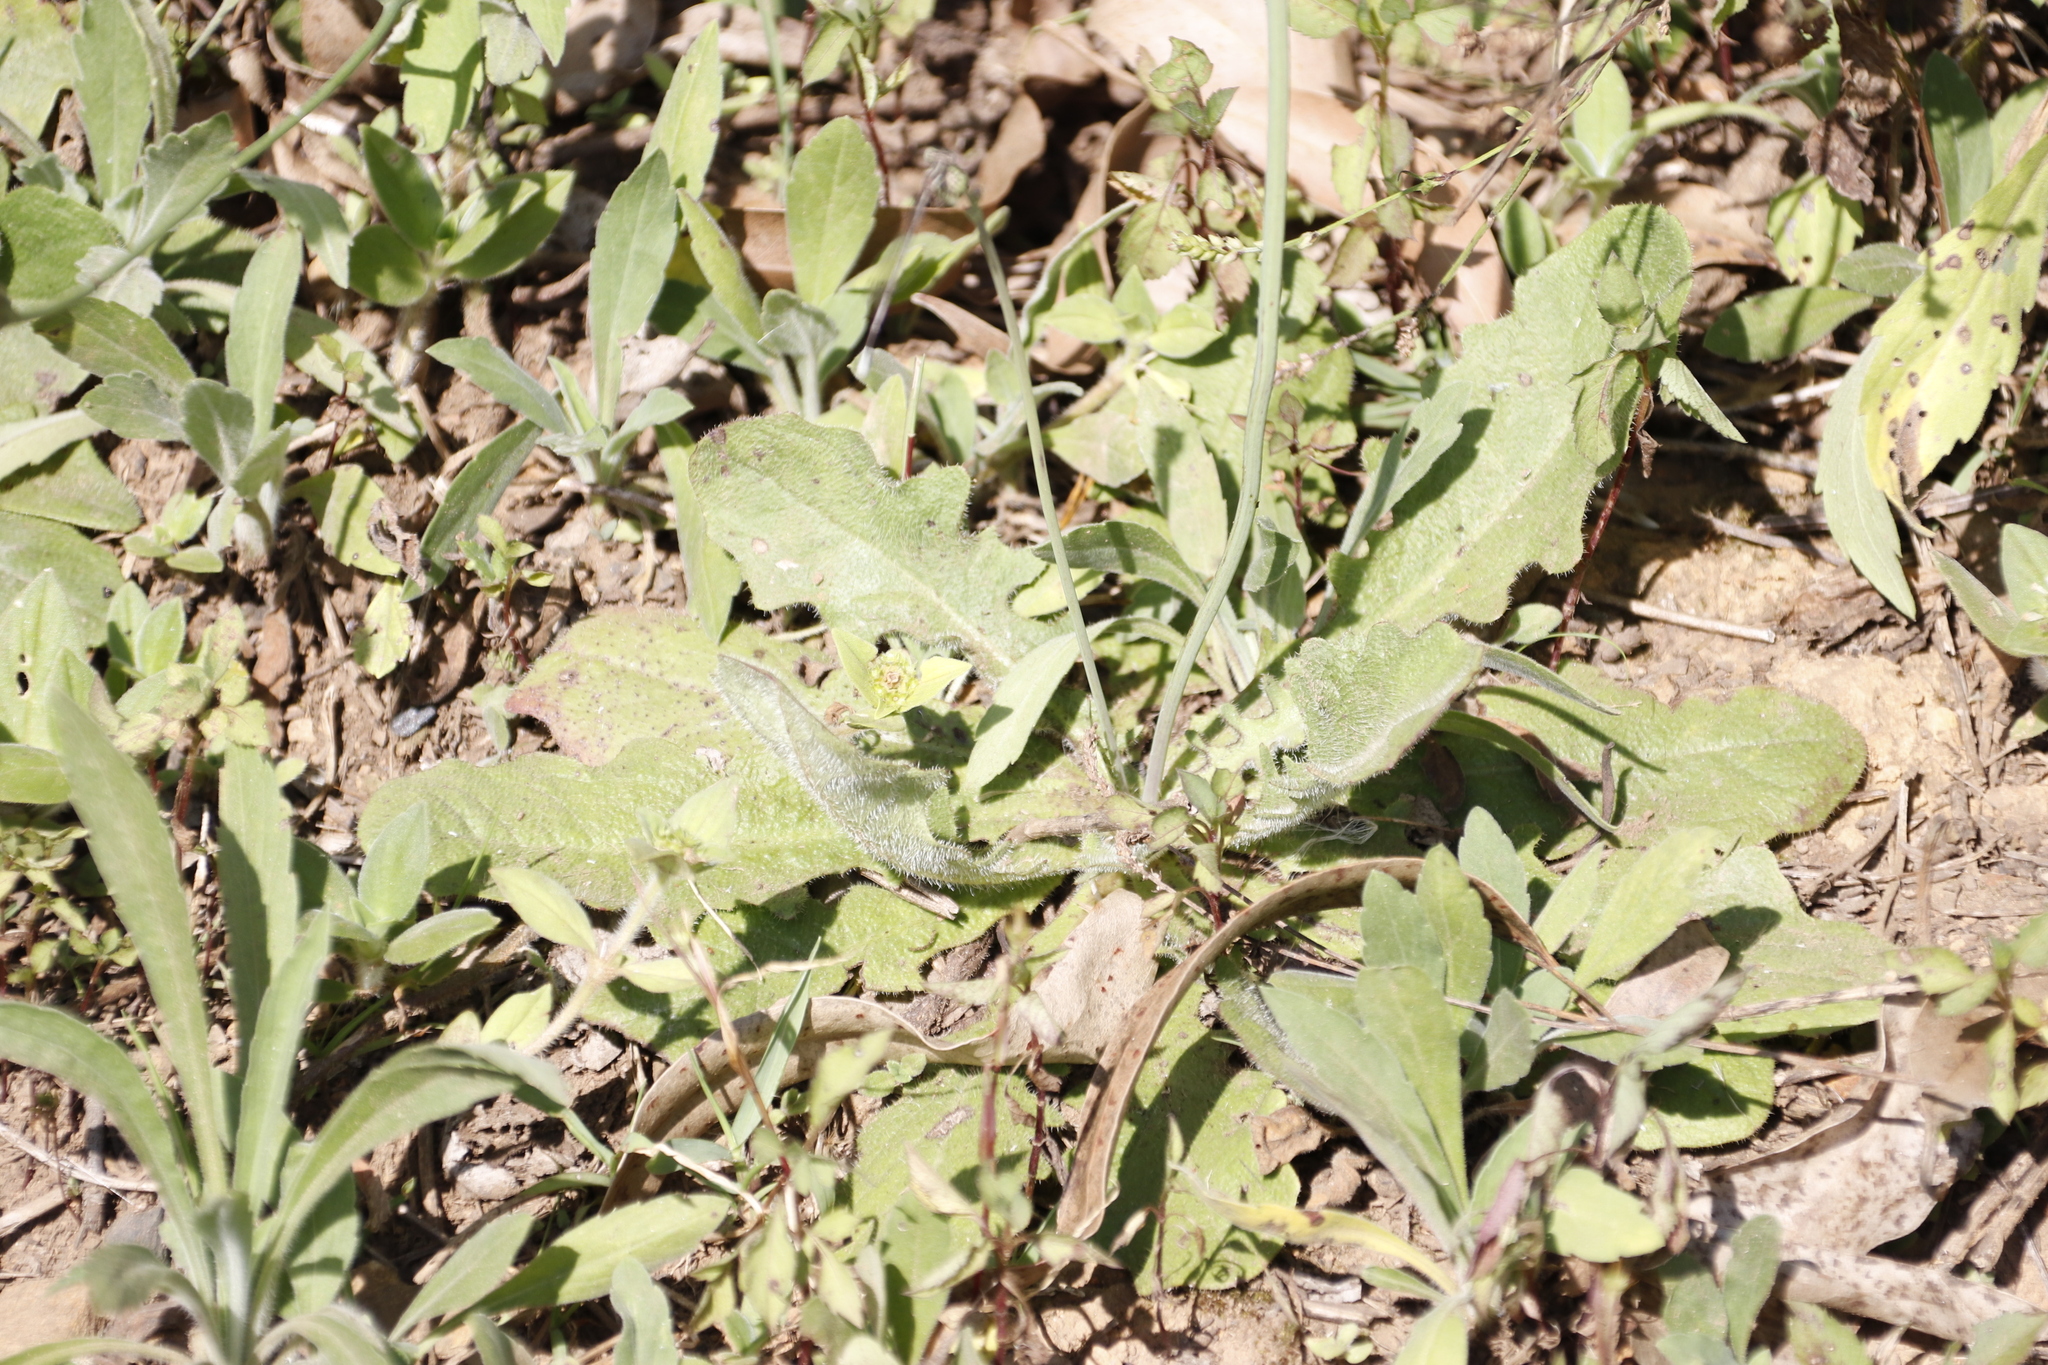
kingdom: Plantae
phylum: Tracheophyta
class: Magnoliopsida
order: Asterales
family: Asteraceae
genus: Hypochaeris
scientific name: Hypochaeris radicata
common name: Flatweed
